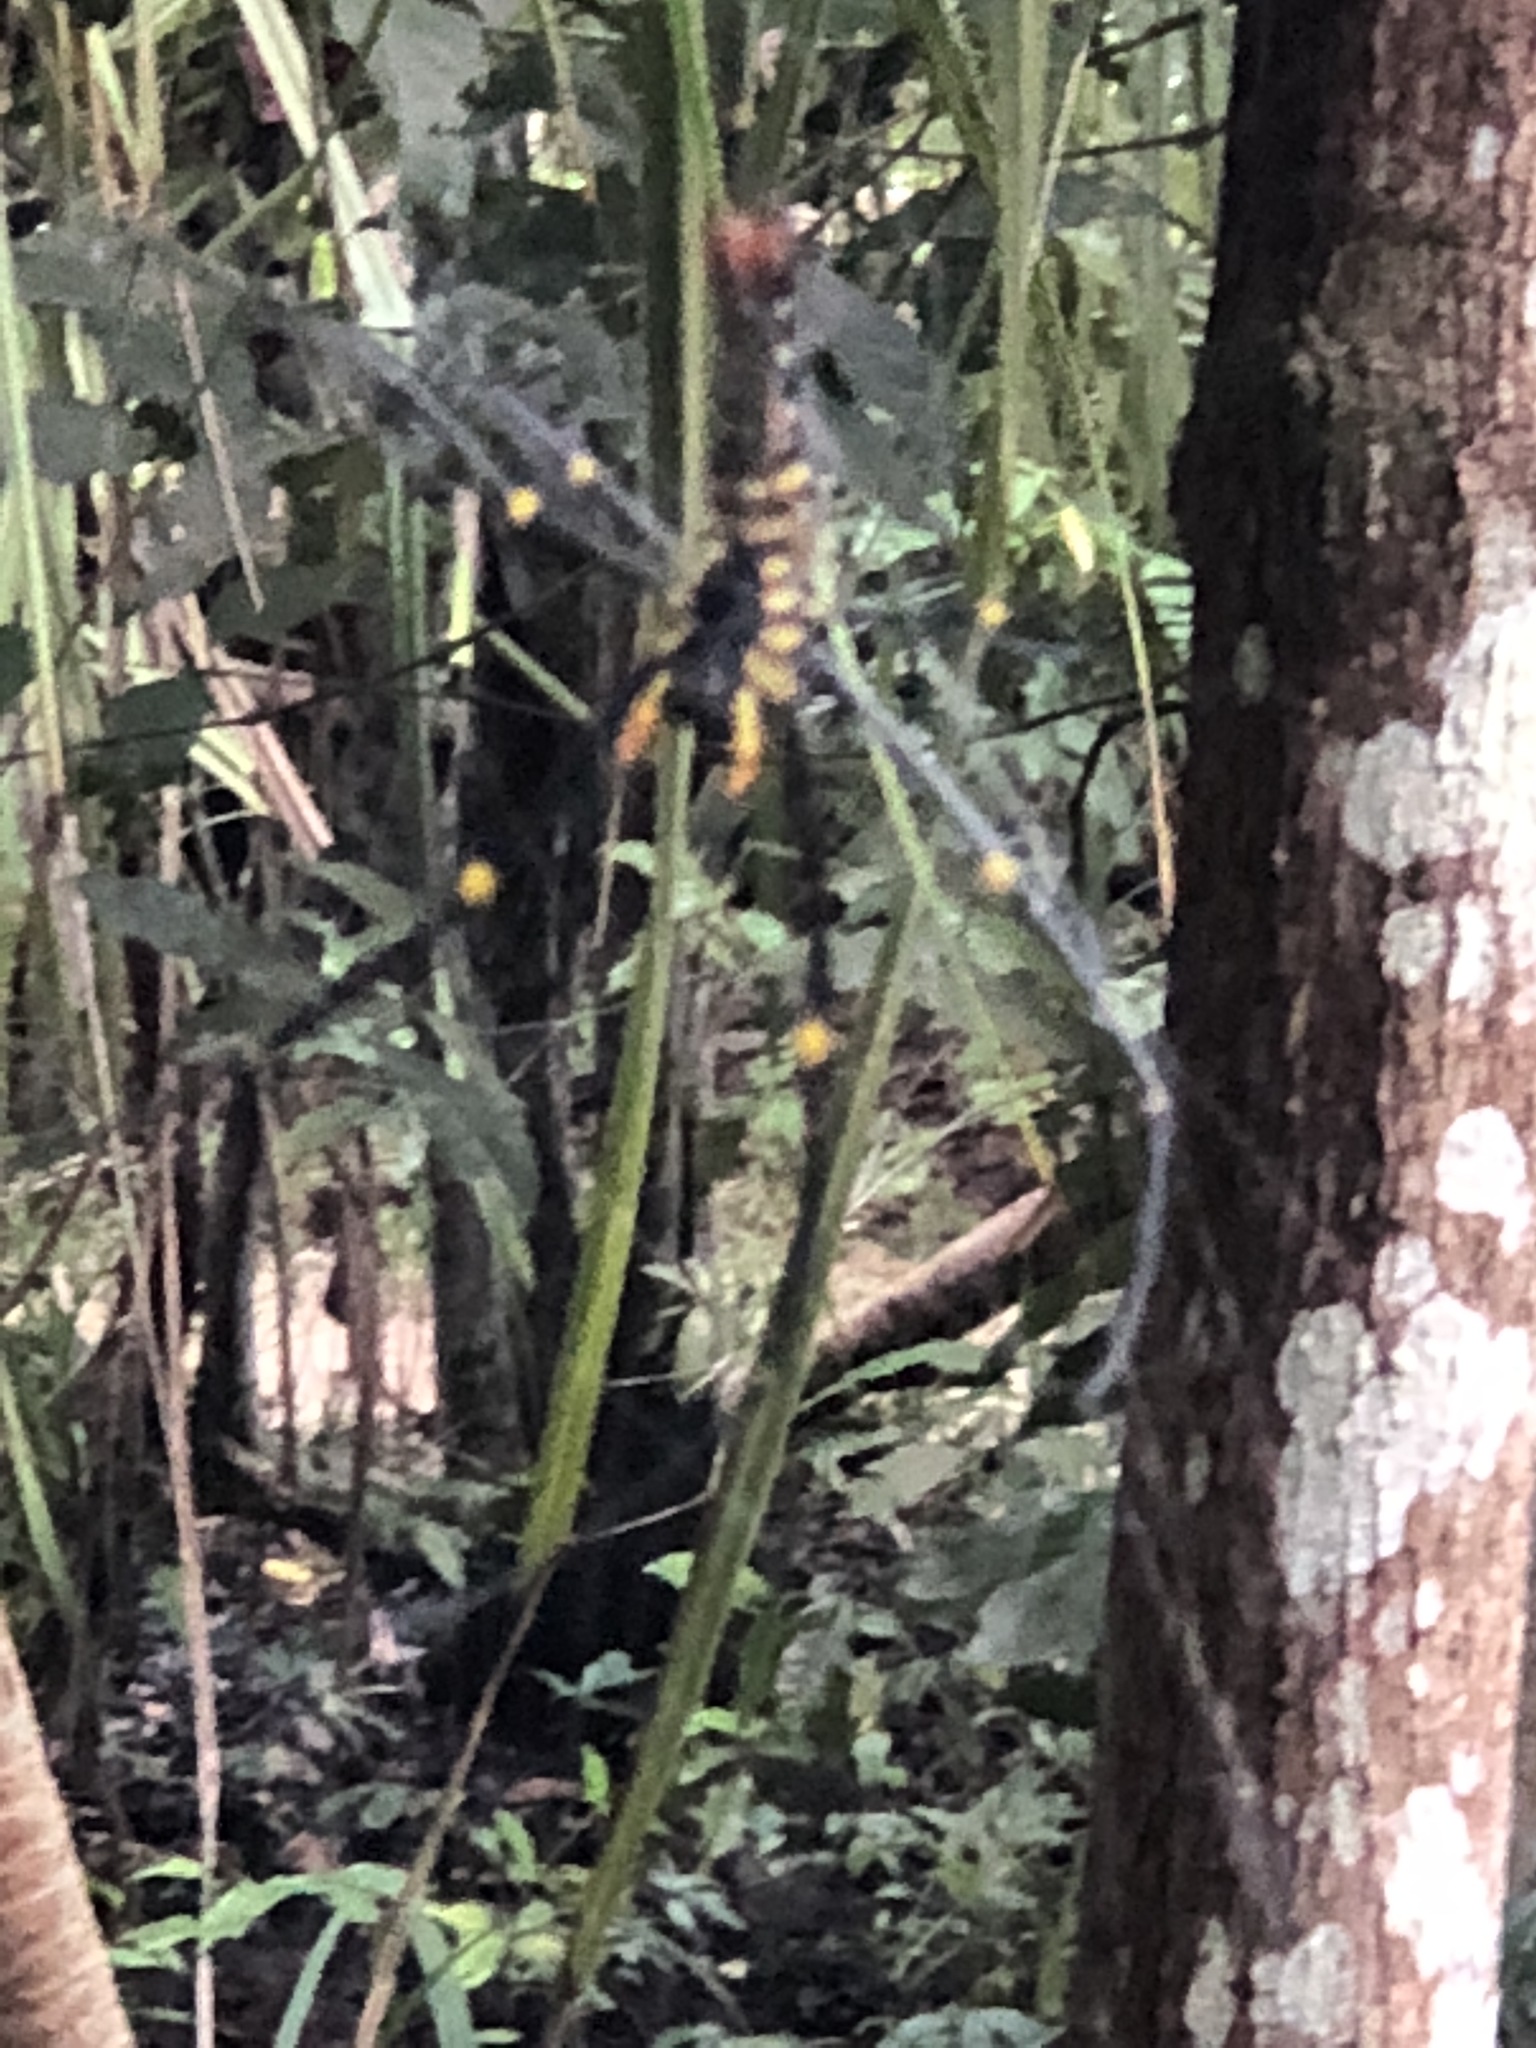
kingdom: Animalia
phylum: Arthropoda
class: Arachnida
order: Araneae
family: Araneidae
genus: Nephila
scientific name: Nephila pilipes
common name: Giant golden orb weaver
